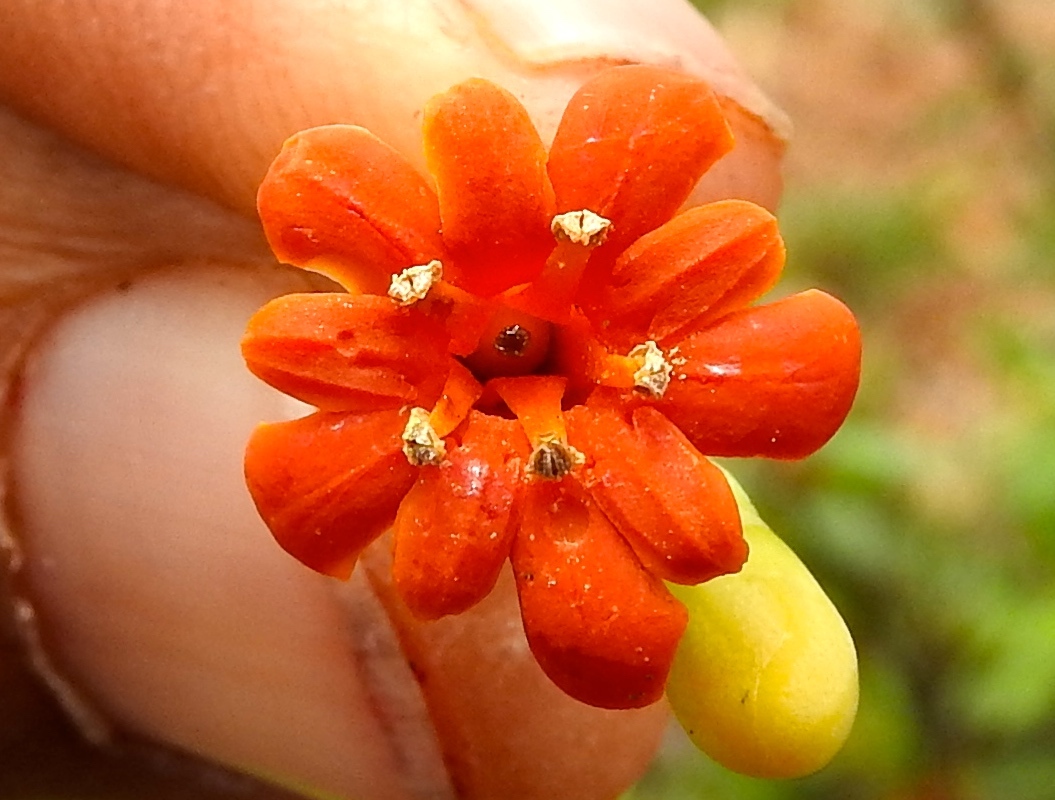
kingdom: Plantae
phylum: Tracheophyta
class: Magnoliopsida
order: Ericales
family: Primulaceae
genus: Bonellia
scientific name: Bonellia macrocarpa
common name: Primrose
